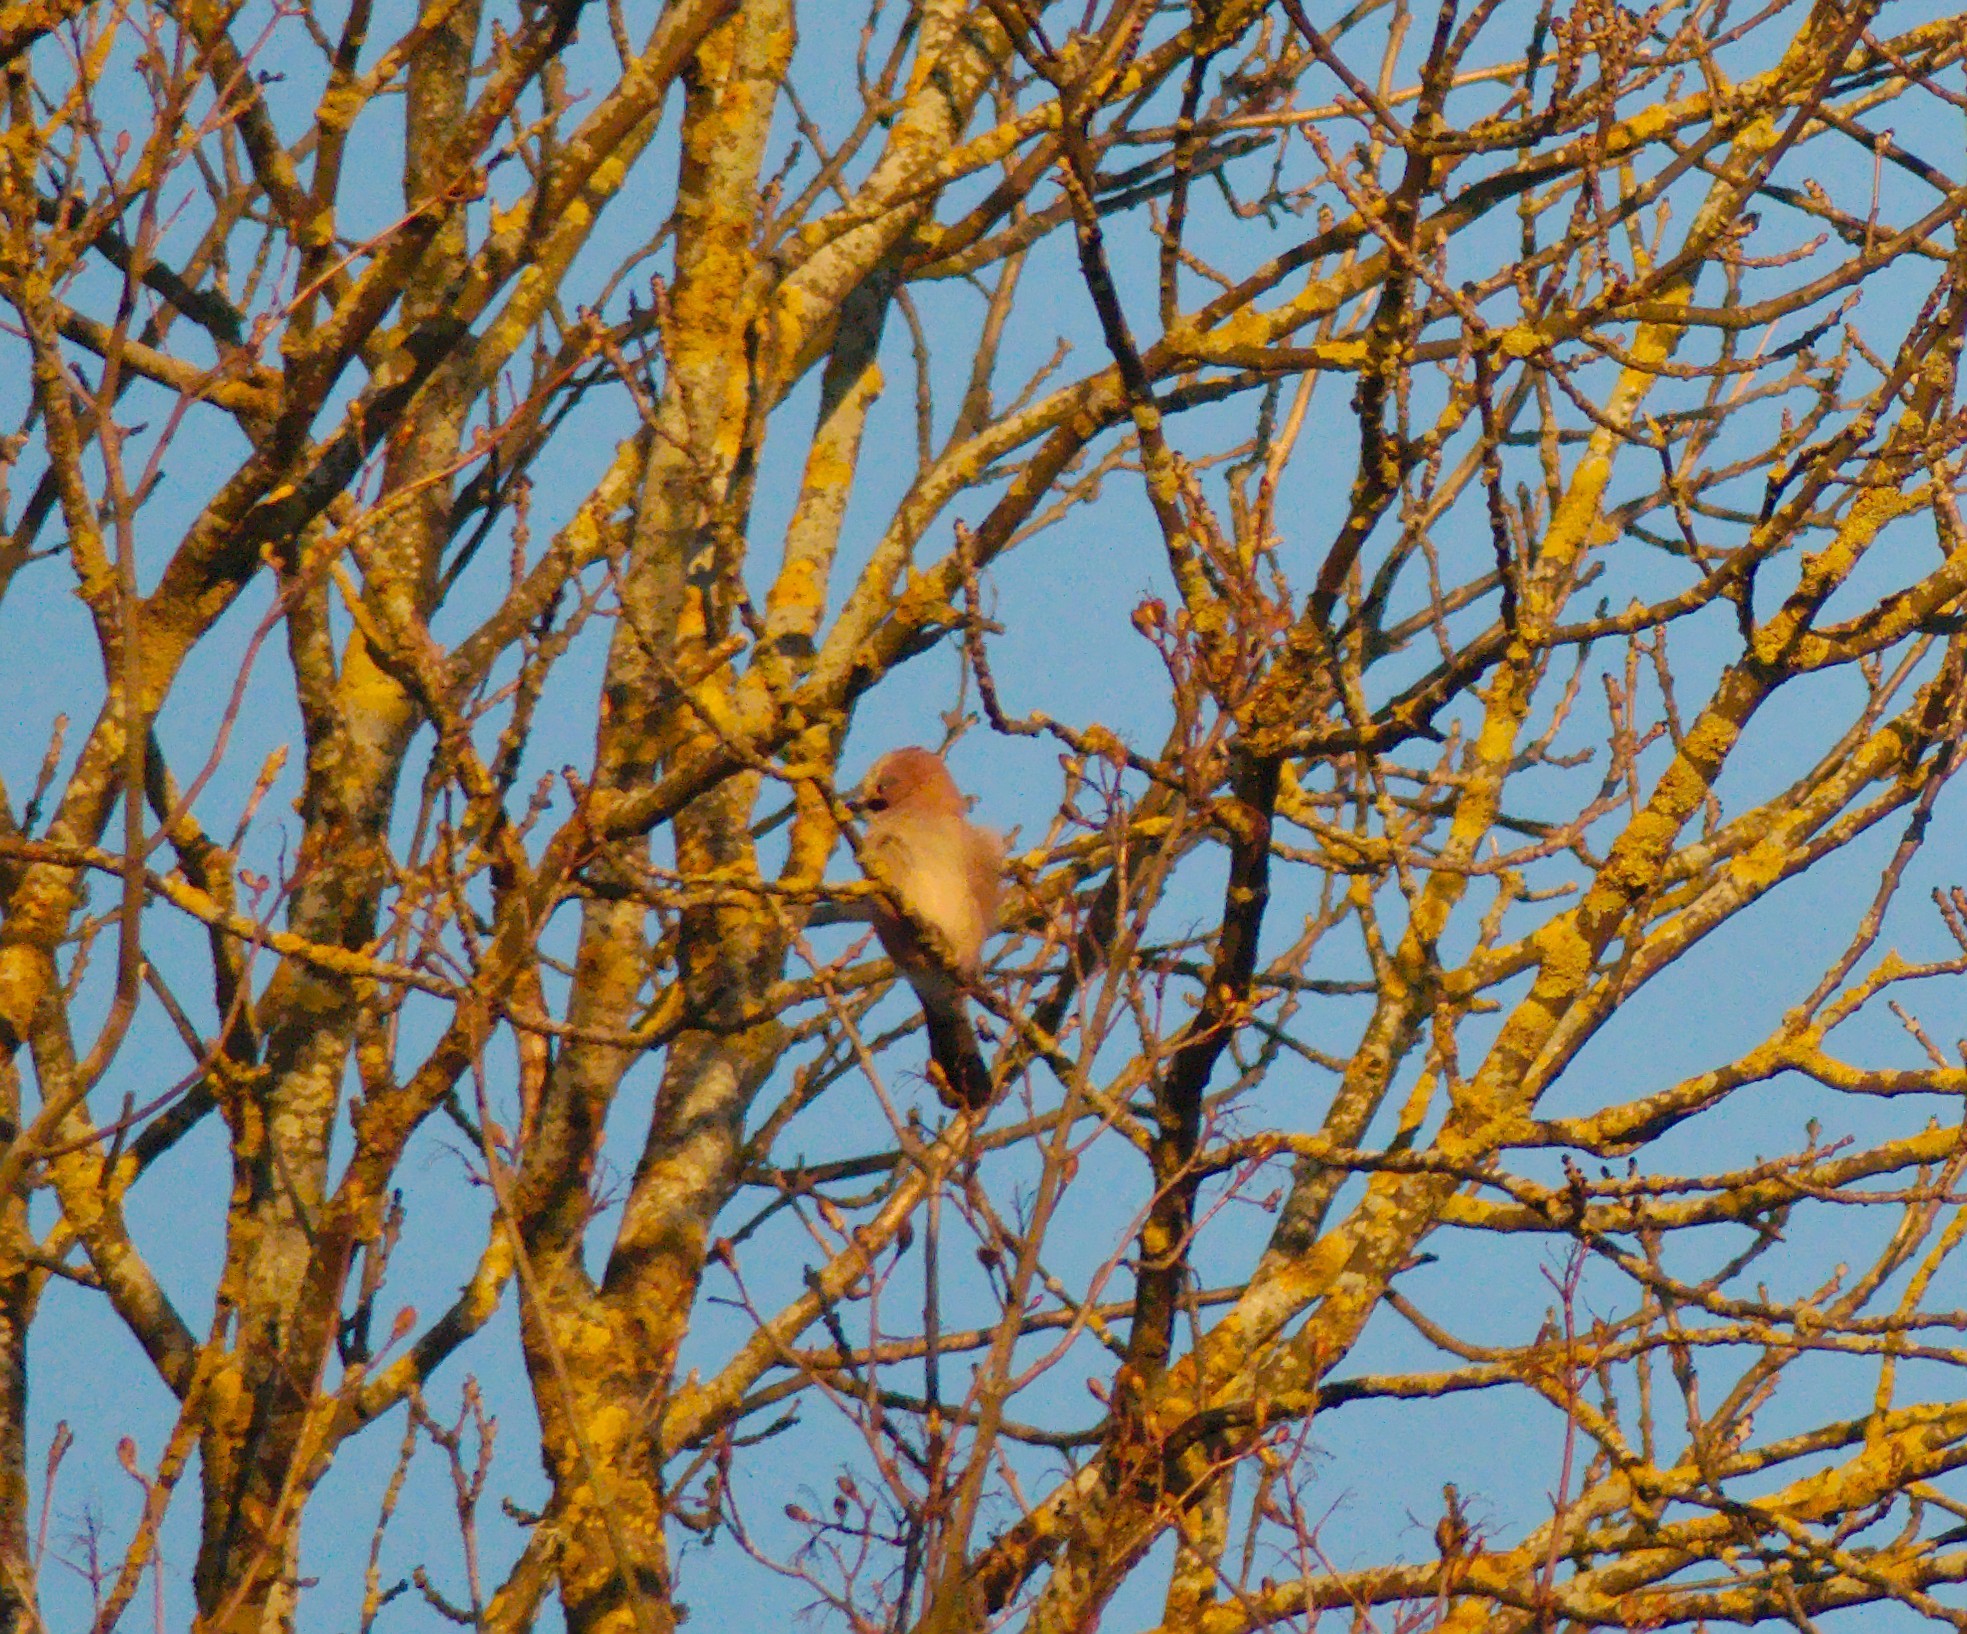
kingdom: Animalia
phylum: Chordata
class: Aves
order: Passeriformes
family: Corvidae
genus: Garrulus
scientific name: Garrulus glandarius
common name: Eurasian jay
